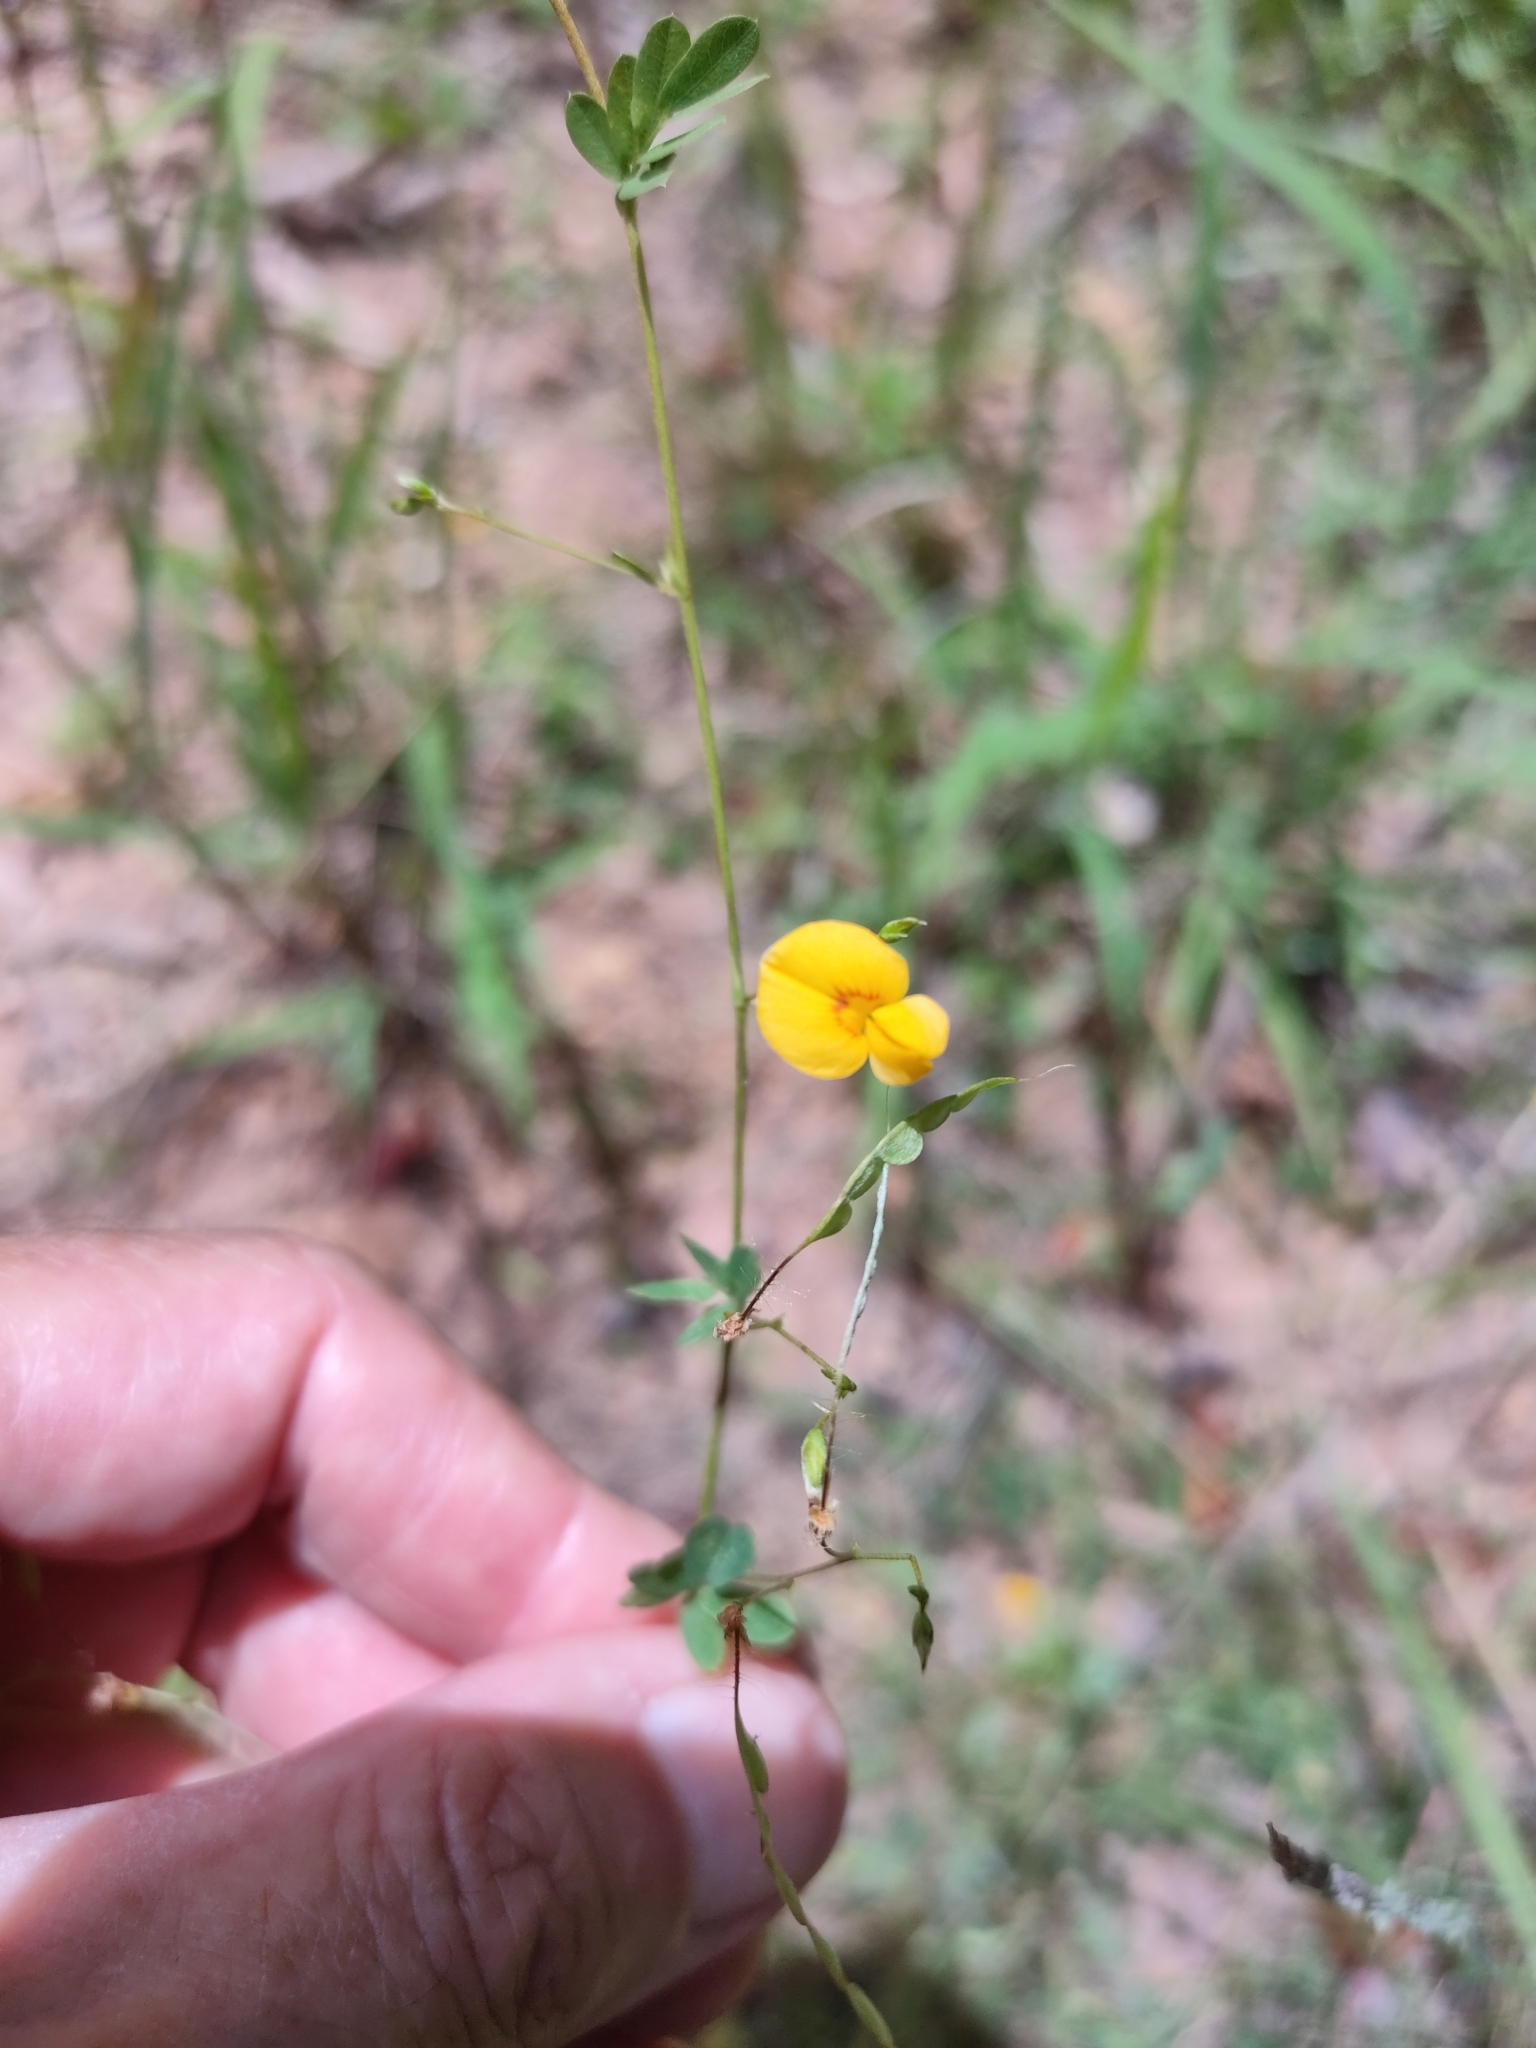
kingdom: Plantae
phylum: Tracheophyta
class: Magnoliopsida
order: Fabales
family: Fabaceae
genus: Aeschynomene
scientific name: Aeschynomene brevifolia
